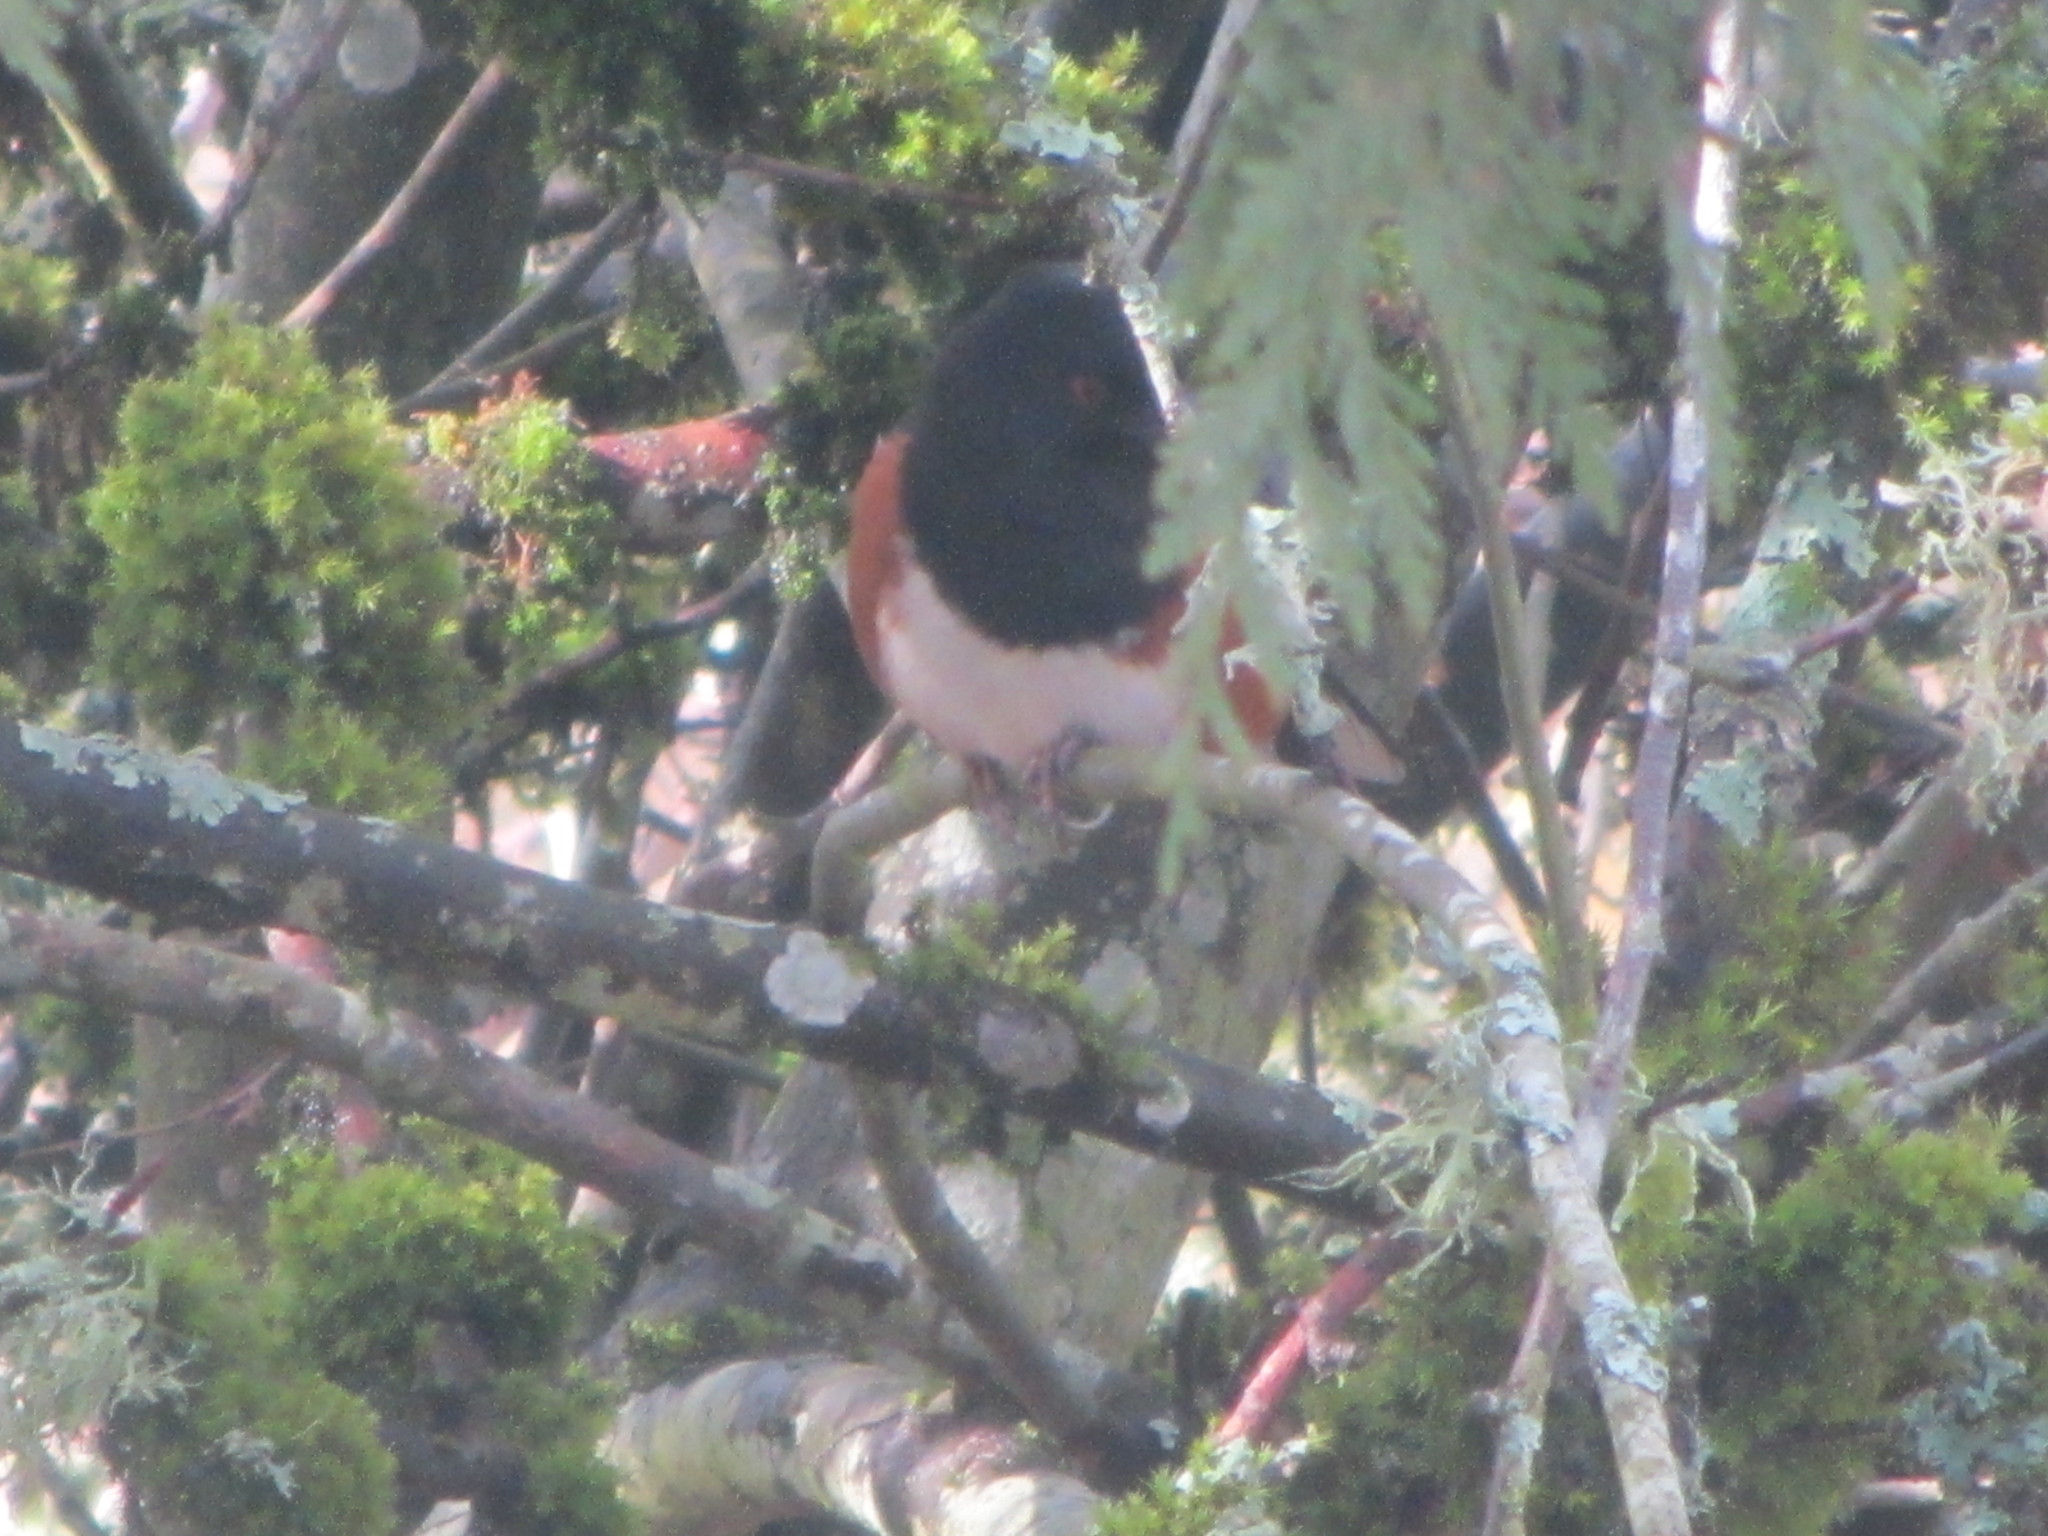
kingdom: Animalia
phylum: Chordata
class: Aves
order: Passeriformes
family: Passerellidae
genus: Pipilo
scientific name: Pipilo maculatus
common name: Spotted towhee
